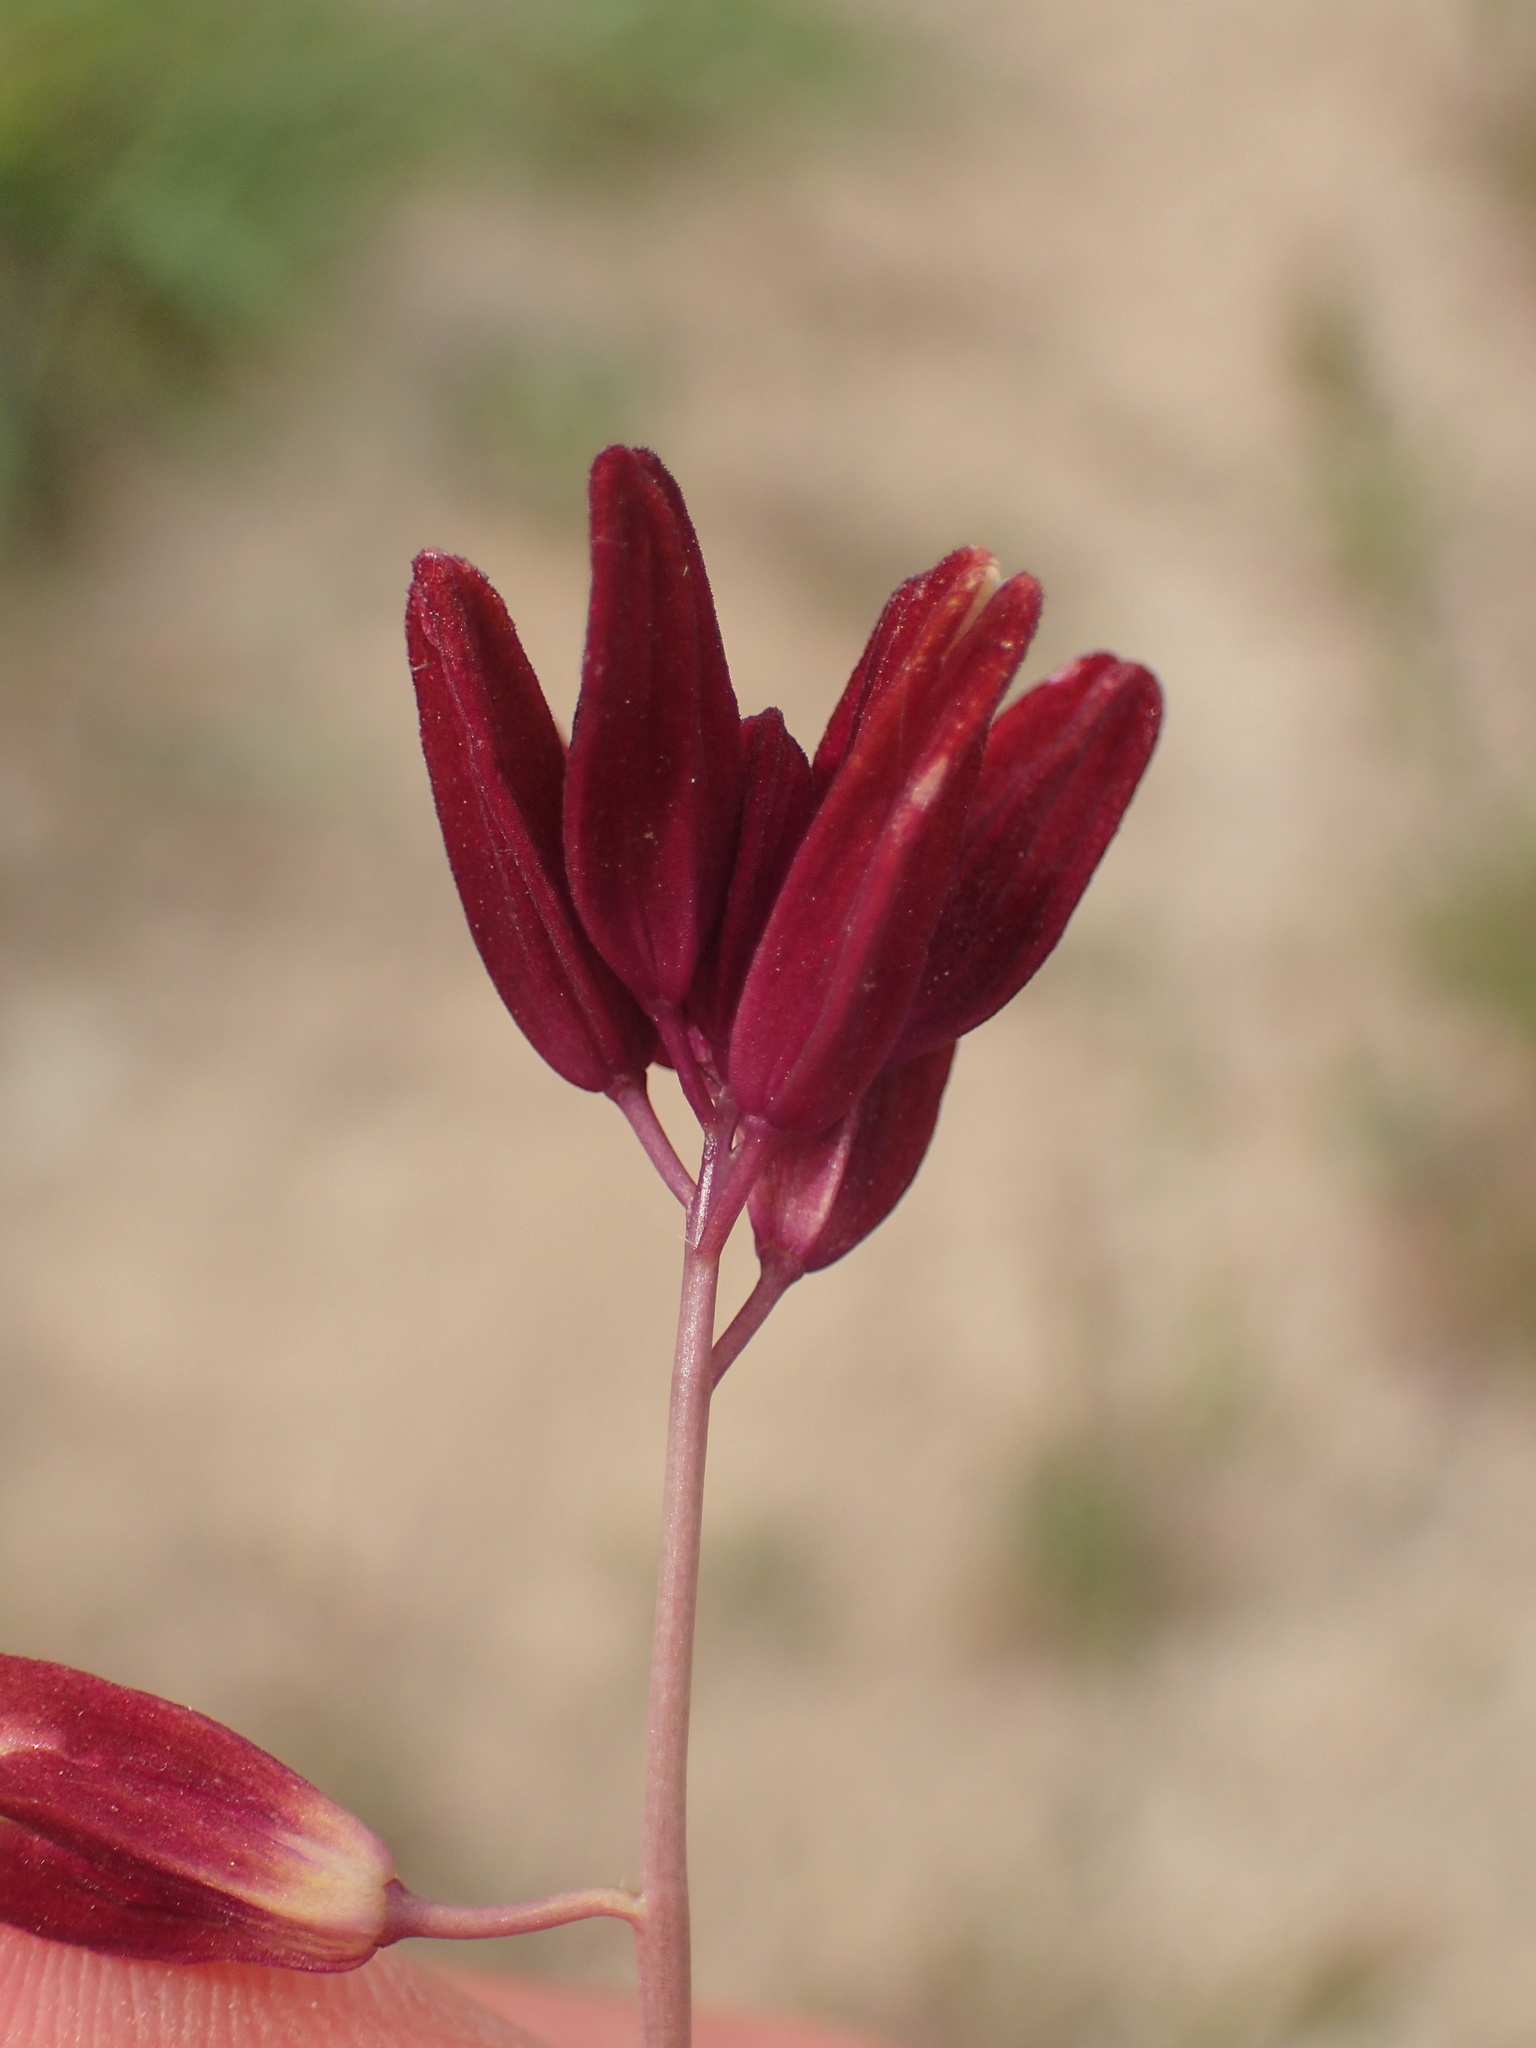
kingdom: Plantae
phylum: Tracheophyta
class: Magnoliopsida
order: Brassicales
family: Brassicaceae
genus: Streptanthus
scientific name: Streptanthus coulteri
